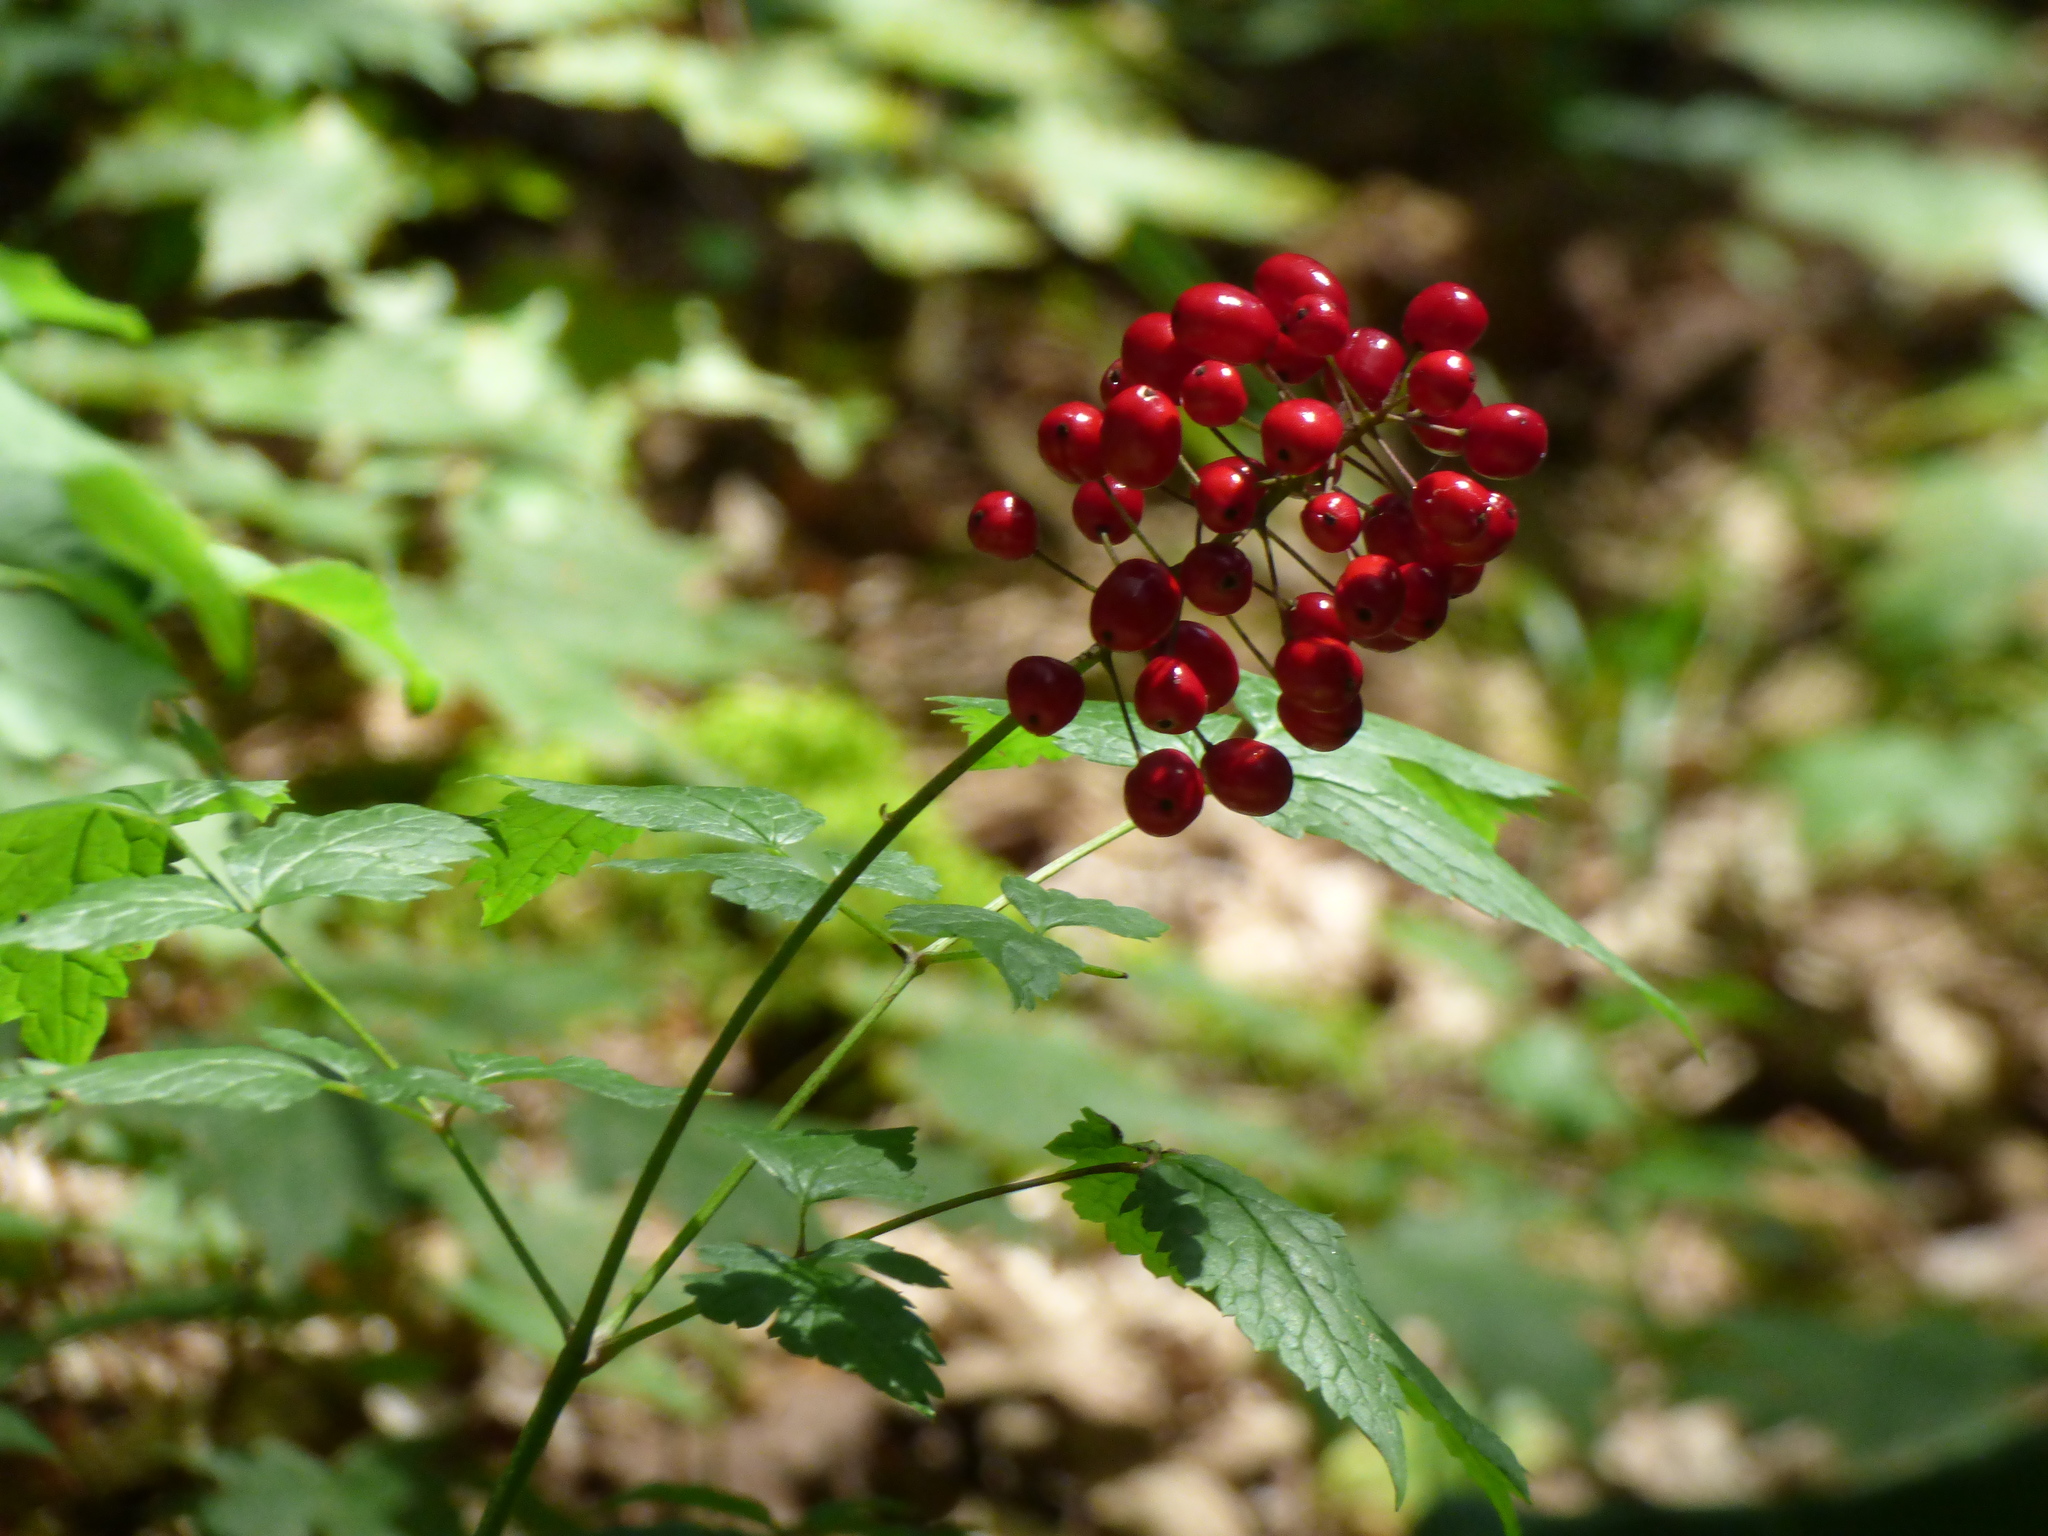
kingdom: Plantae
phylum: Tracheophyta
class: Magnoliopsida
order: Ranunculales
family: Ranunculaceae
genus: Actaea
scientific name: Actaea rubra
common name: Red baneberry
